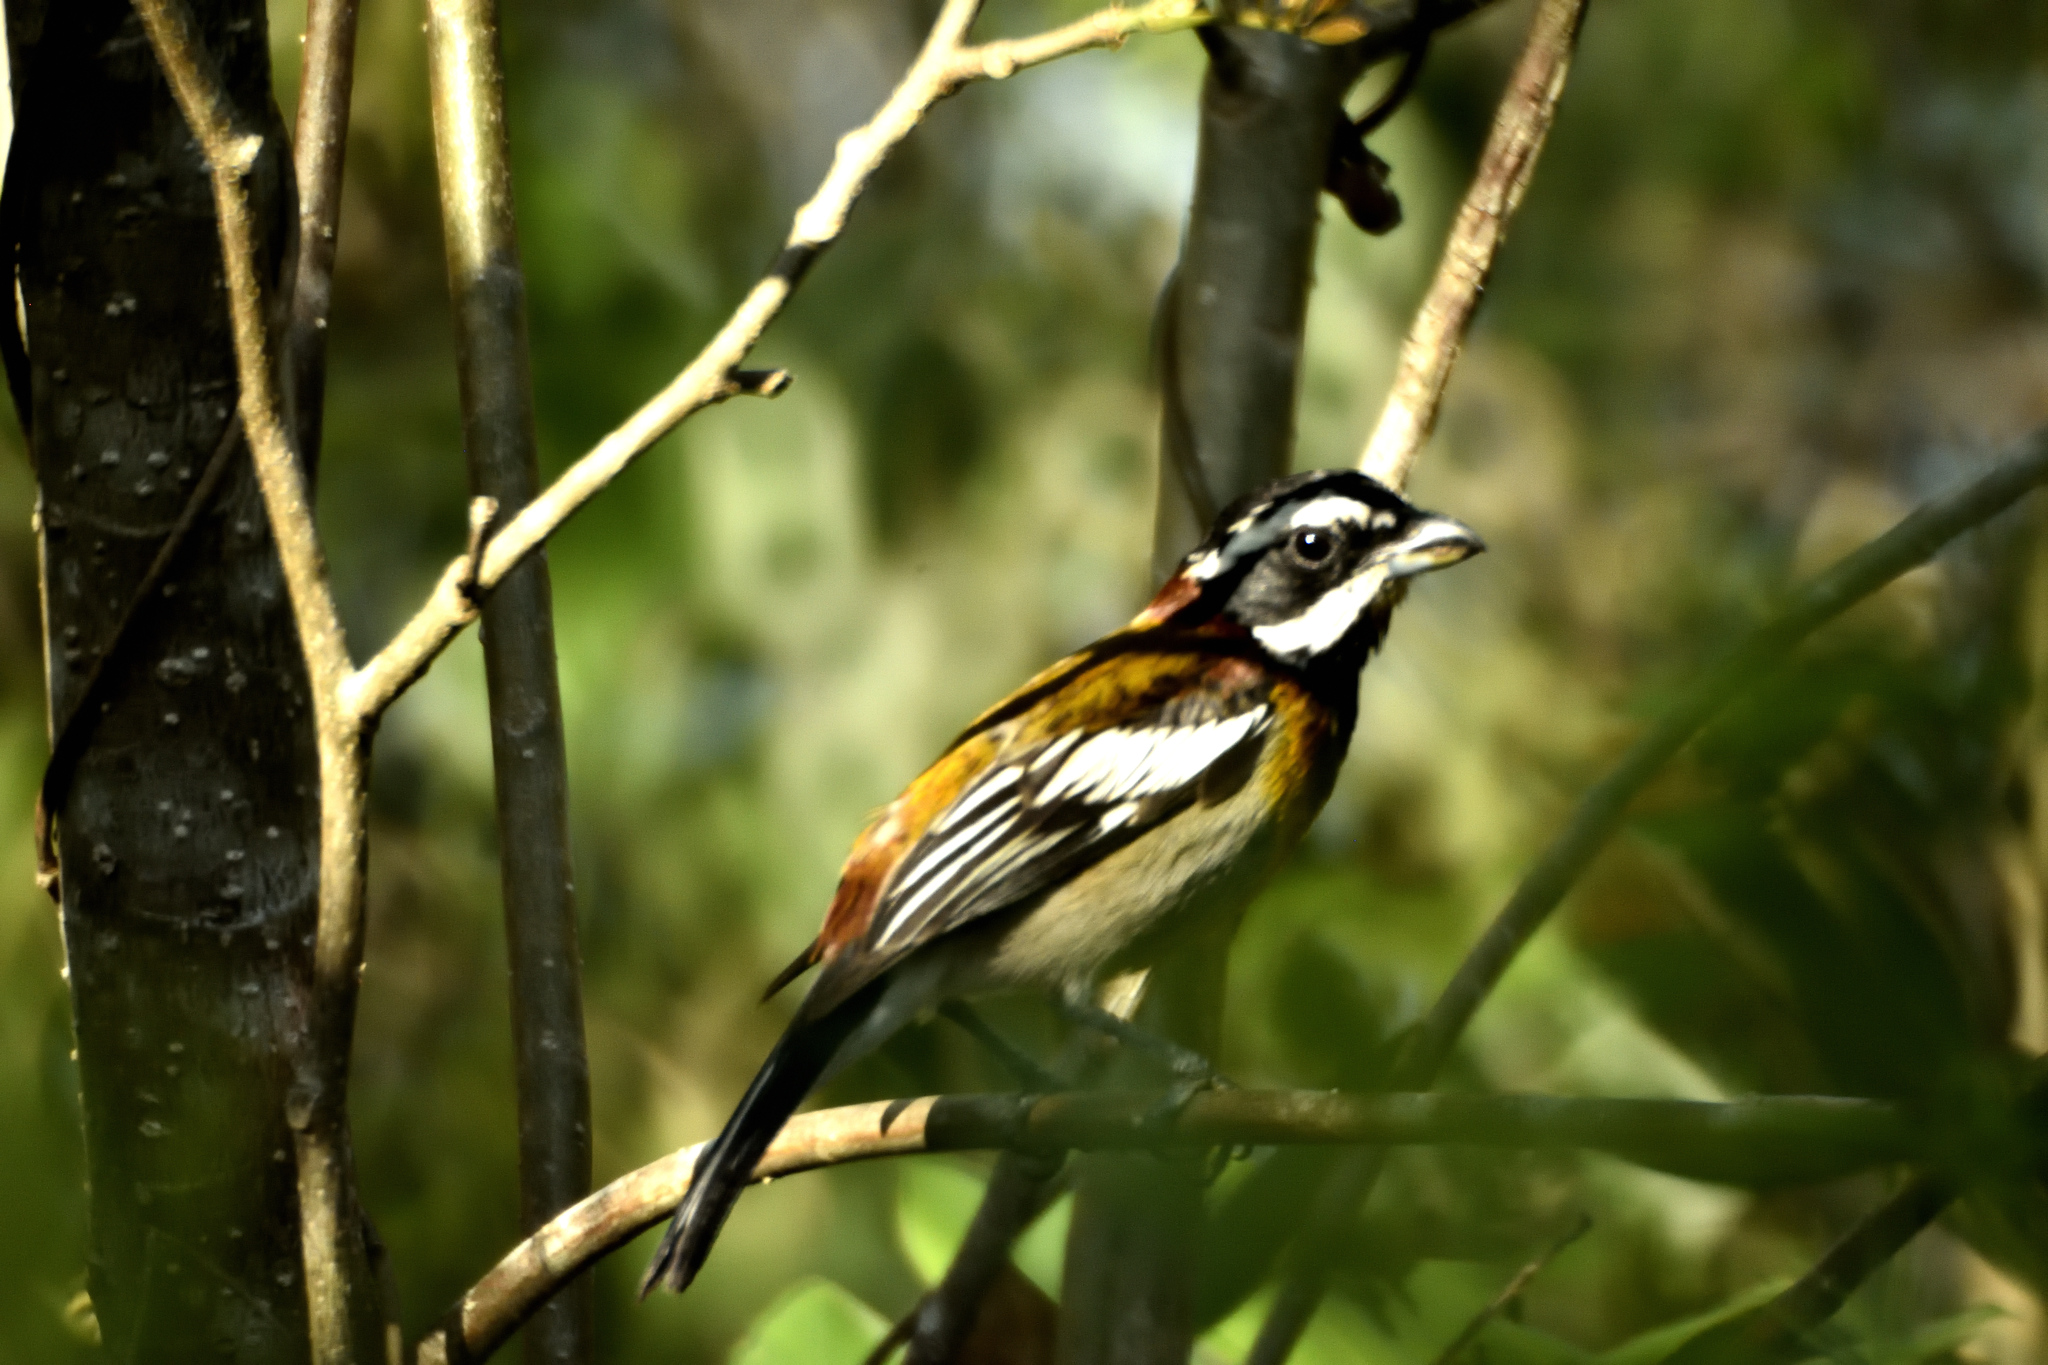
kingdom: Animalia
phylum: Chordata
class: Aves
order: Passeriformes
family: Spindalidae
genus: Spindalis
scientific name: Spindalis zena
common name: Western spindalis
